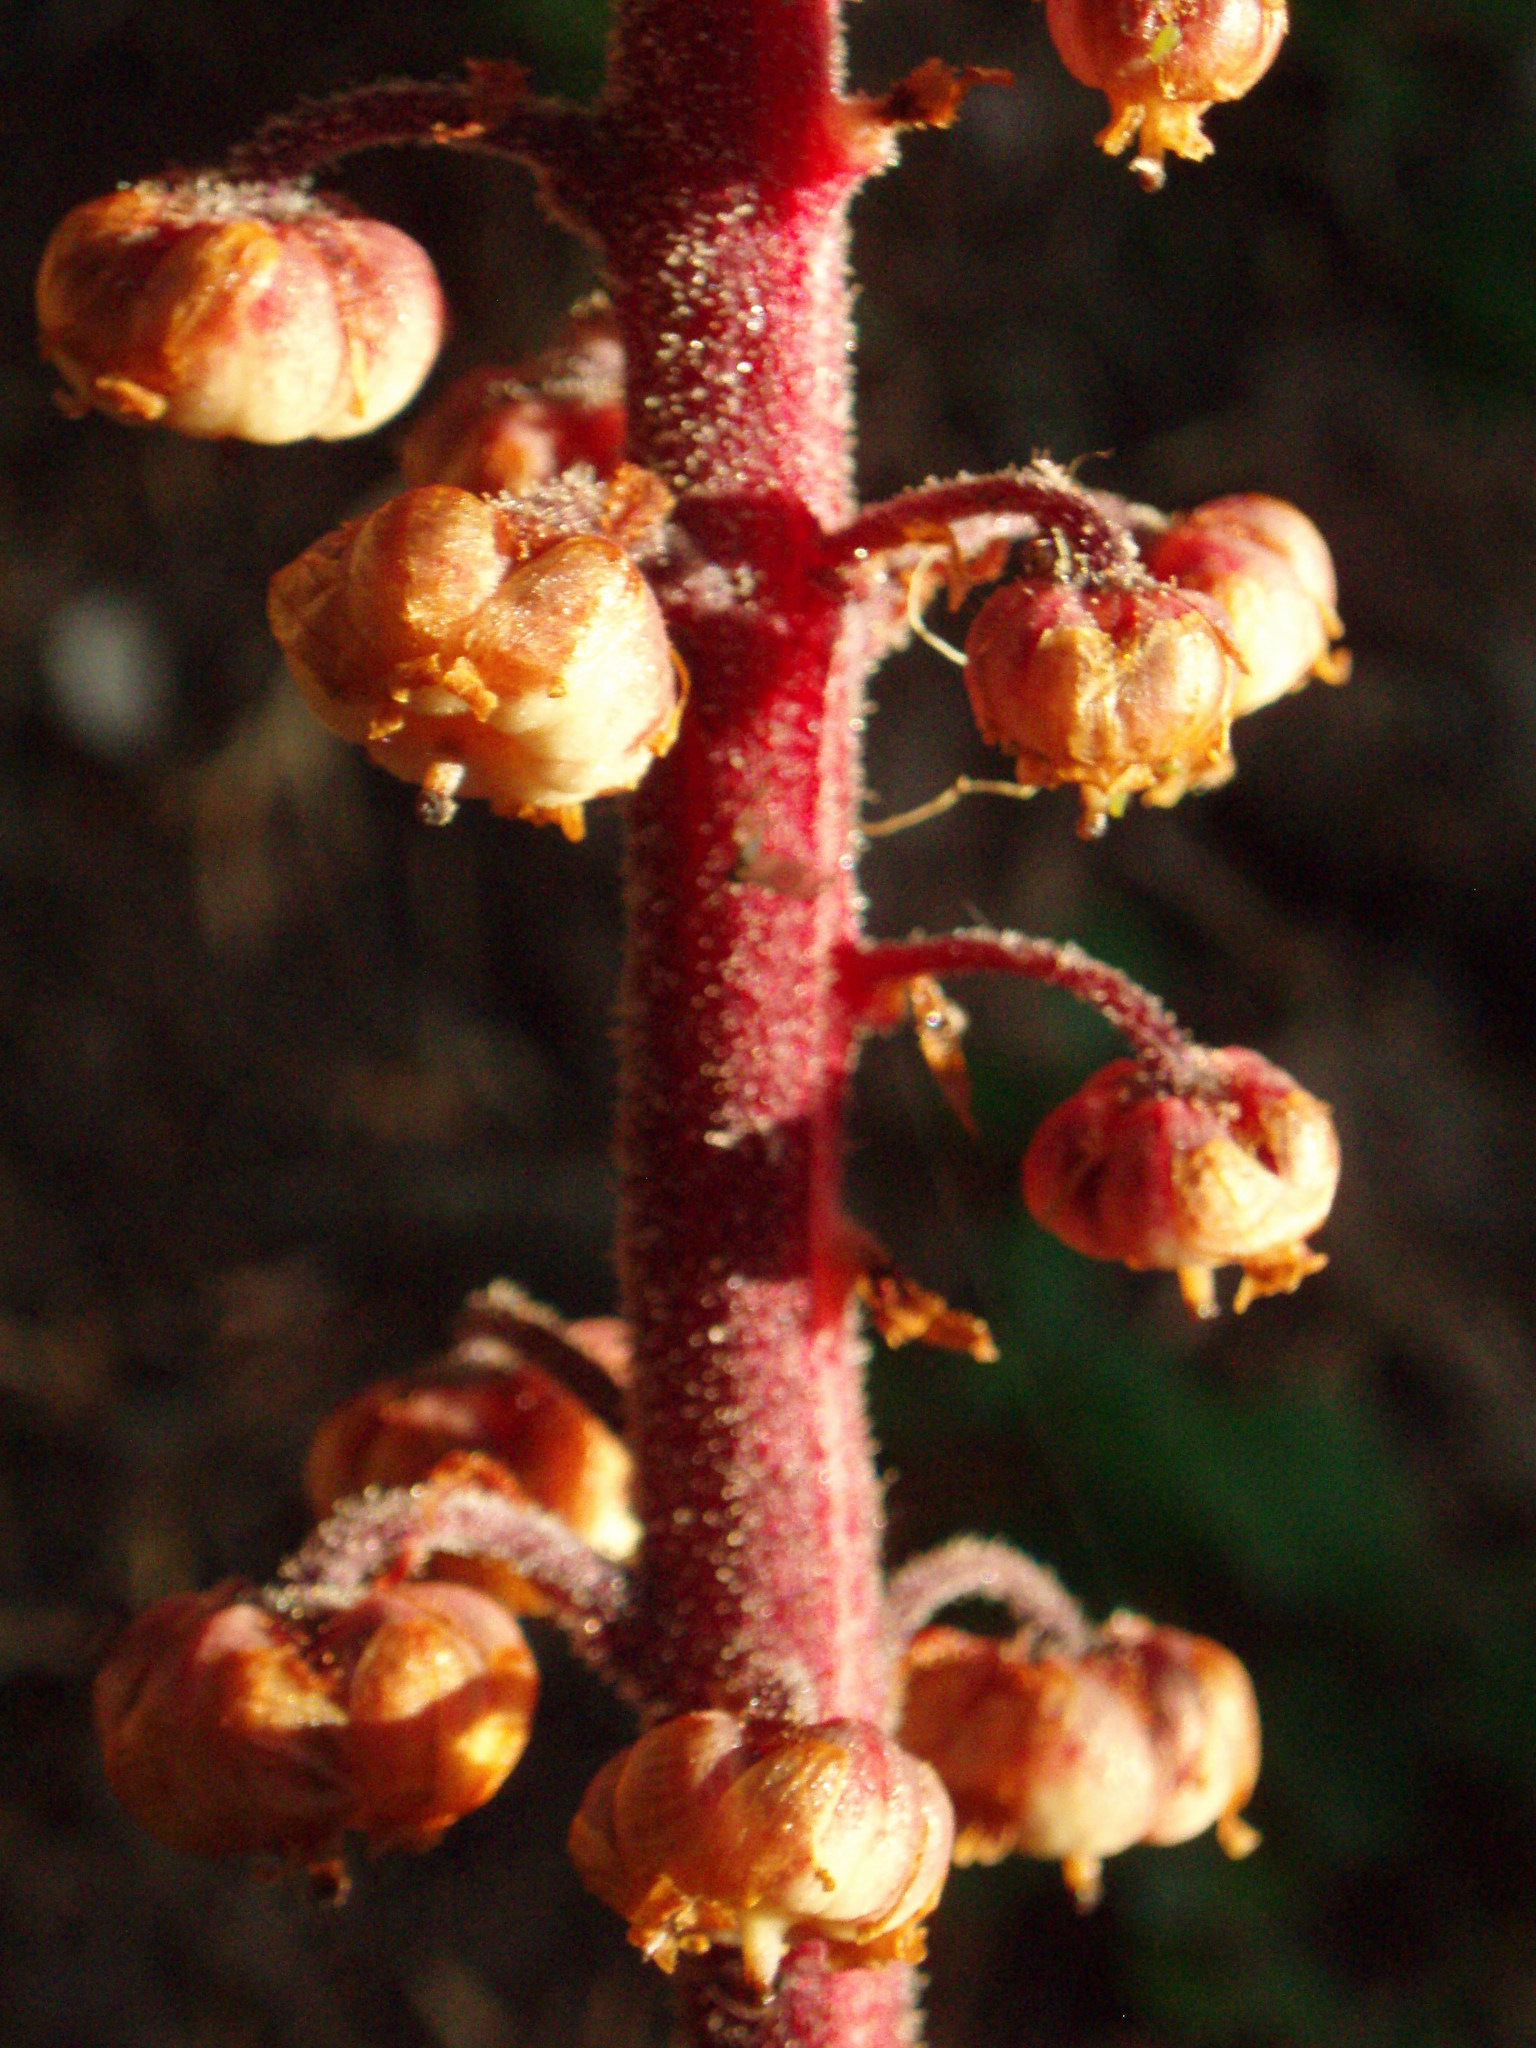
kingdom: Plantae
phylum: Tracheophyta
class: Magnoliopsida
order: Ericales
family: Ericaceae
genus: Pterospora
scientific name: Pterospora andromedea
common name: Giant bird's-nest
